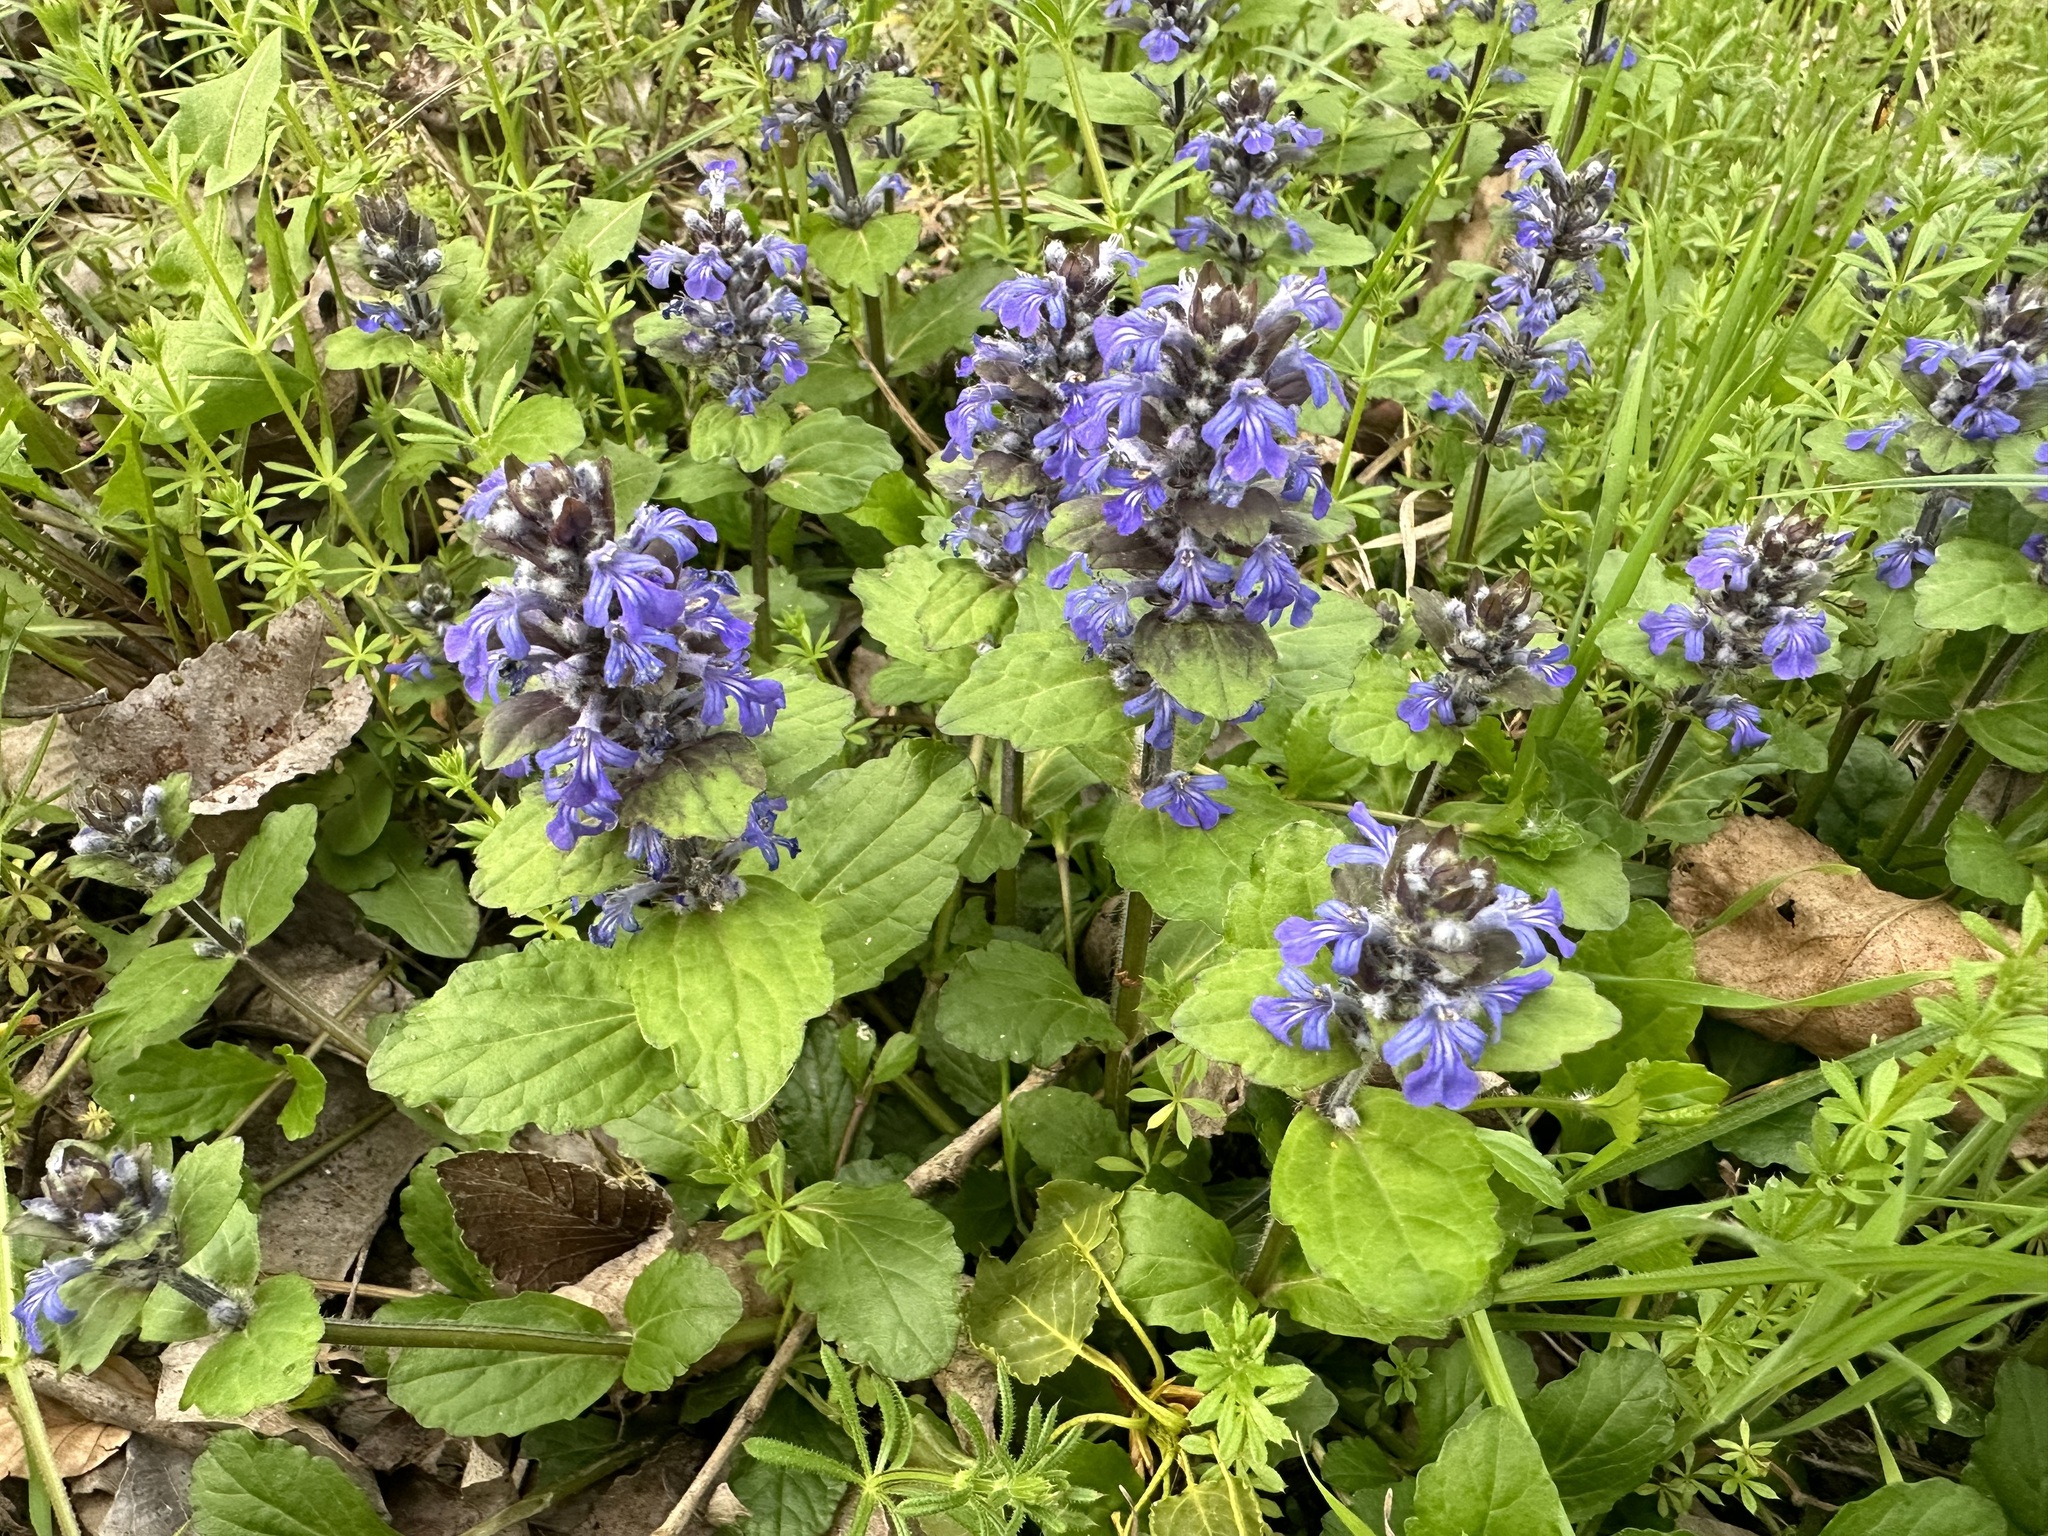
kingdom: Plantae
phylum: Tracheophyta
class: Magnoliopsida
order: Lamiales
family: Lamiaceae
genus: Ajuga
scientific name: Ajuga reptans
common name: Bugle
